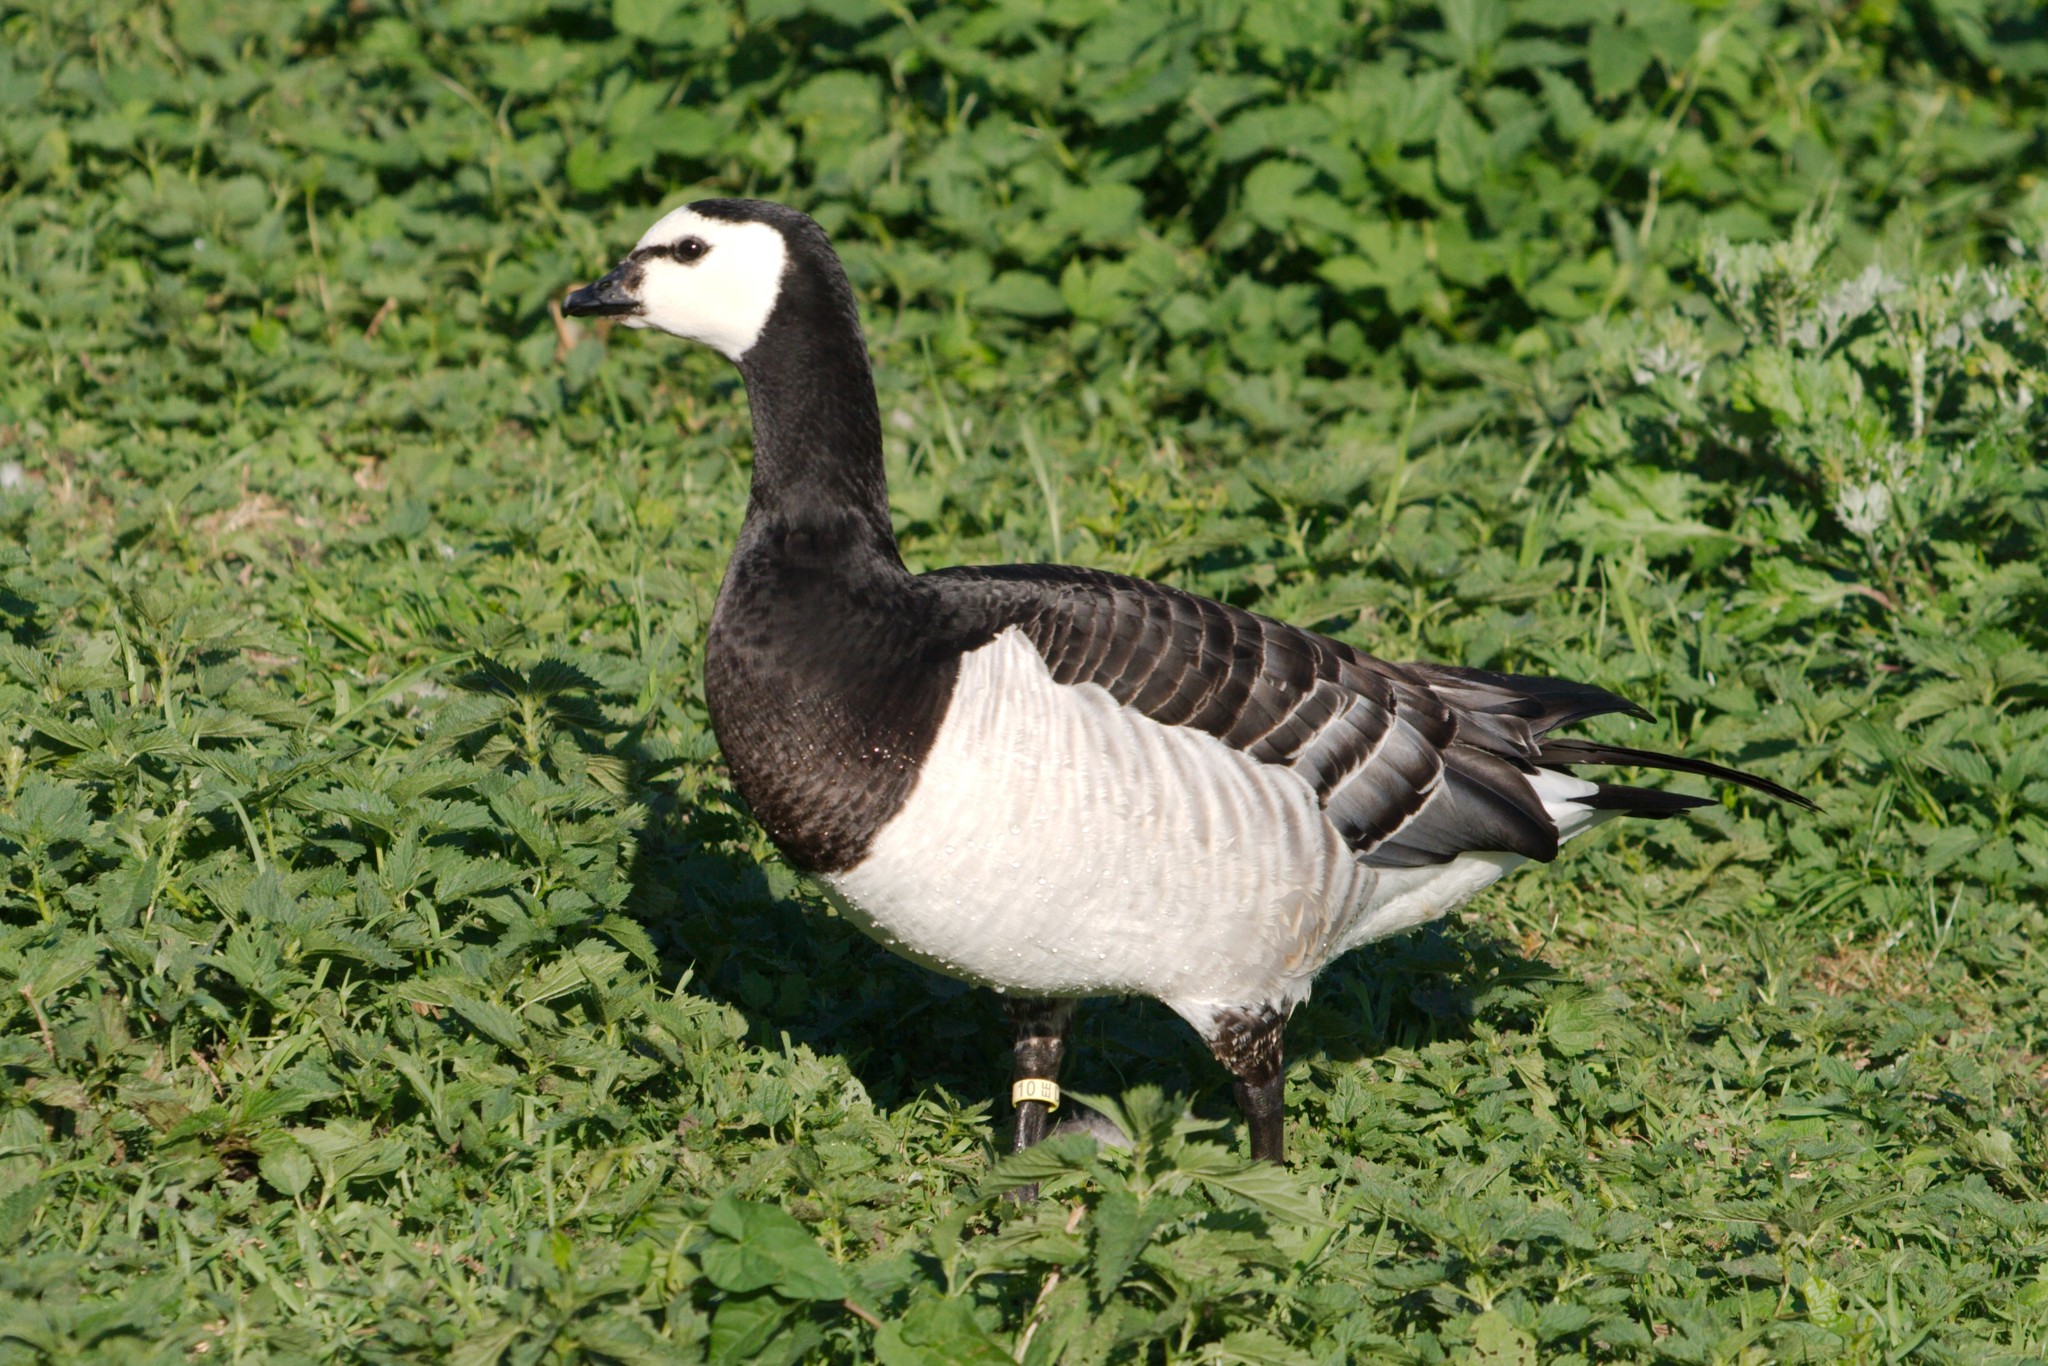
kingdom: Animalia
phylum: Chordata
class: Aves
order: Anseriformes
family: Anatidae
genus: Branta
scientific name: Branta leucopsis
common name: Barnacle goose
